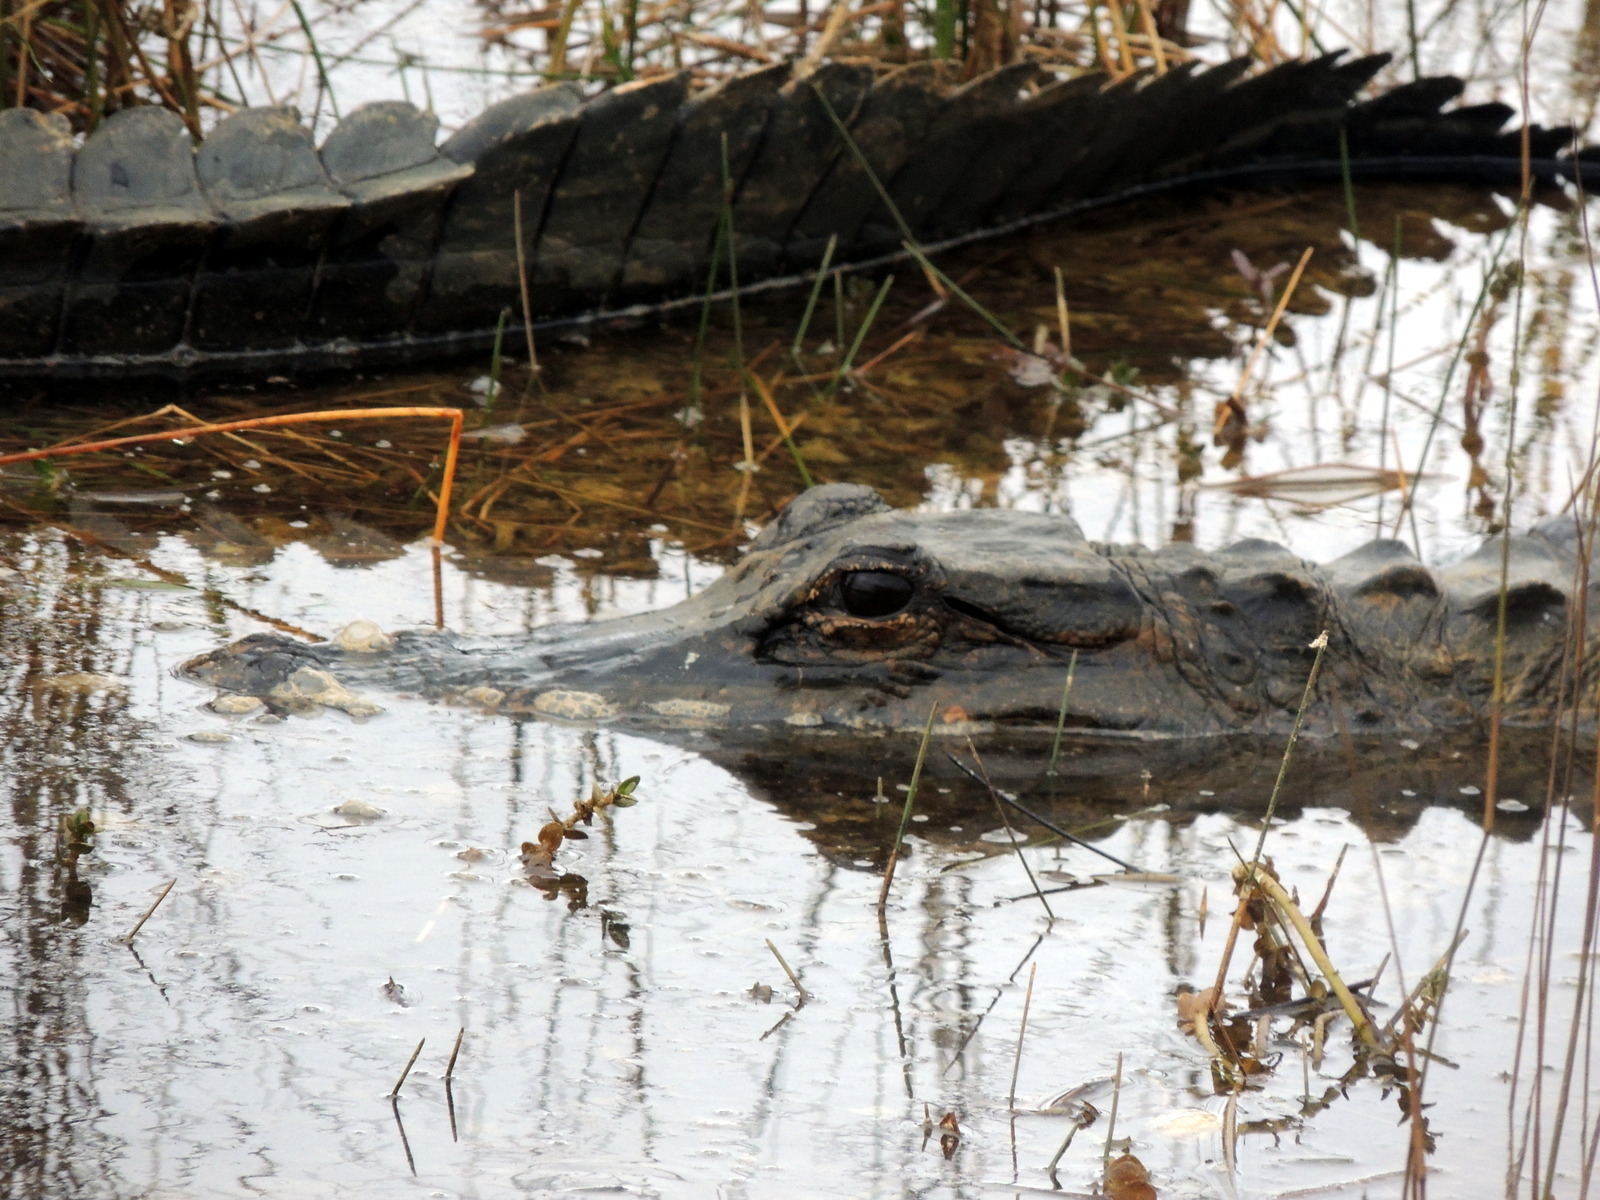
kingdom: Animalia
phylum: Chordata
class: Crocodylia
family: Alligatoridae
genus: Alligator
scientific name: Alligator mississippiensis
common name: American alligator
